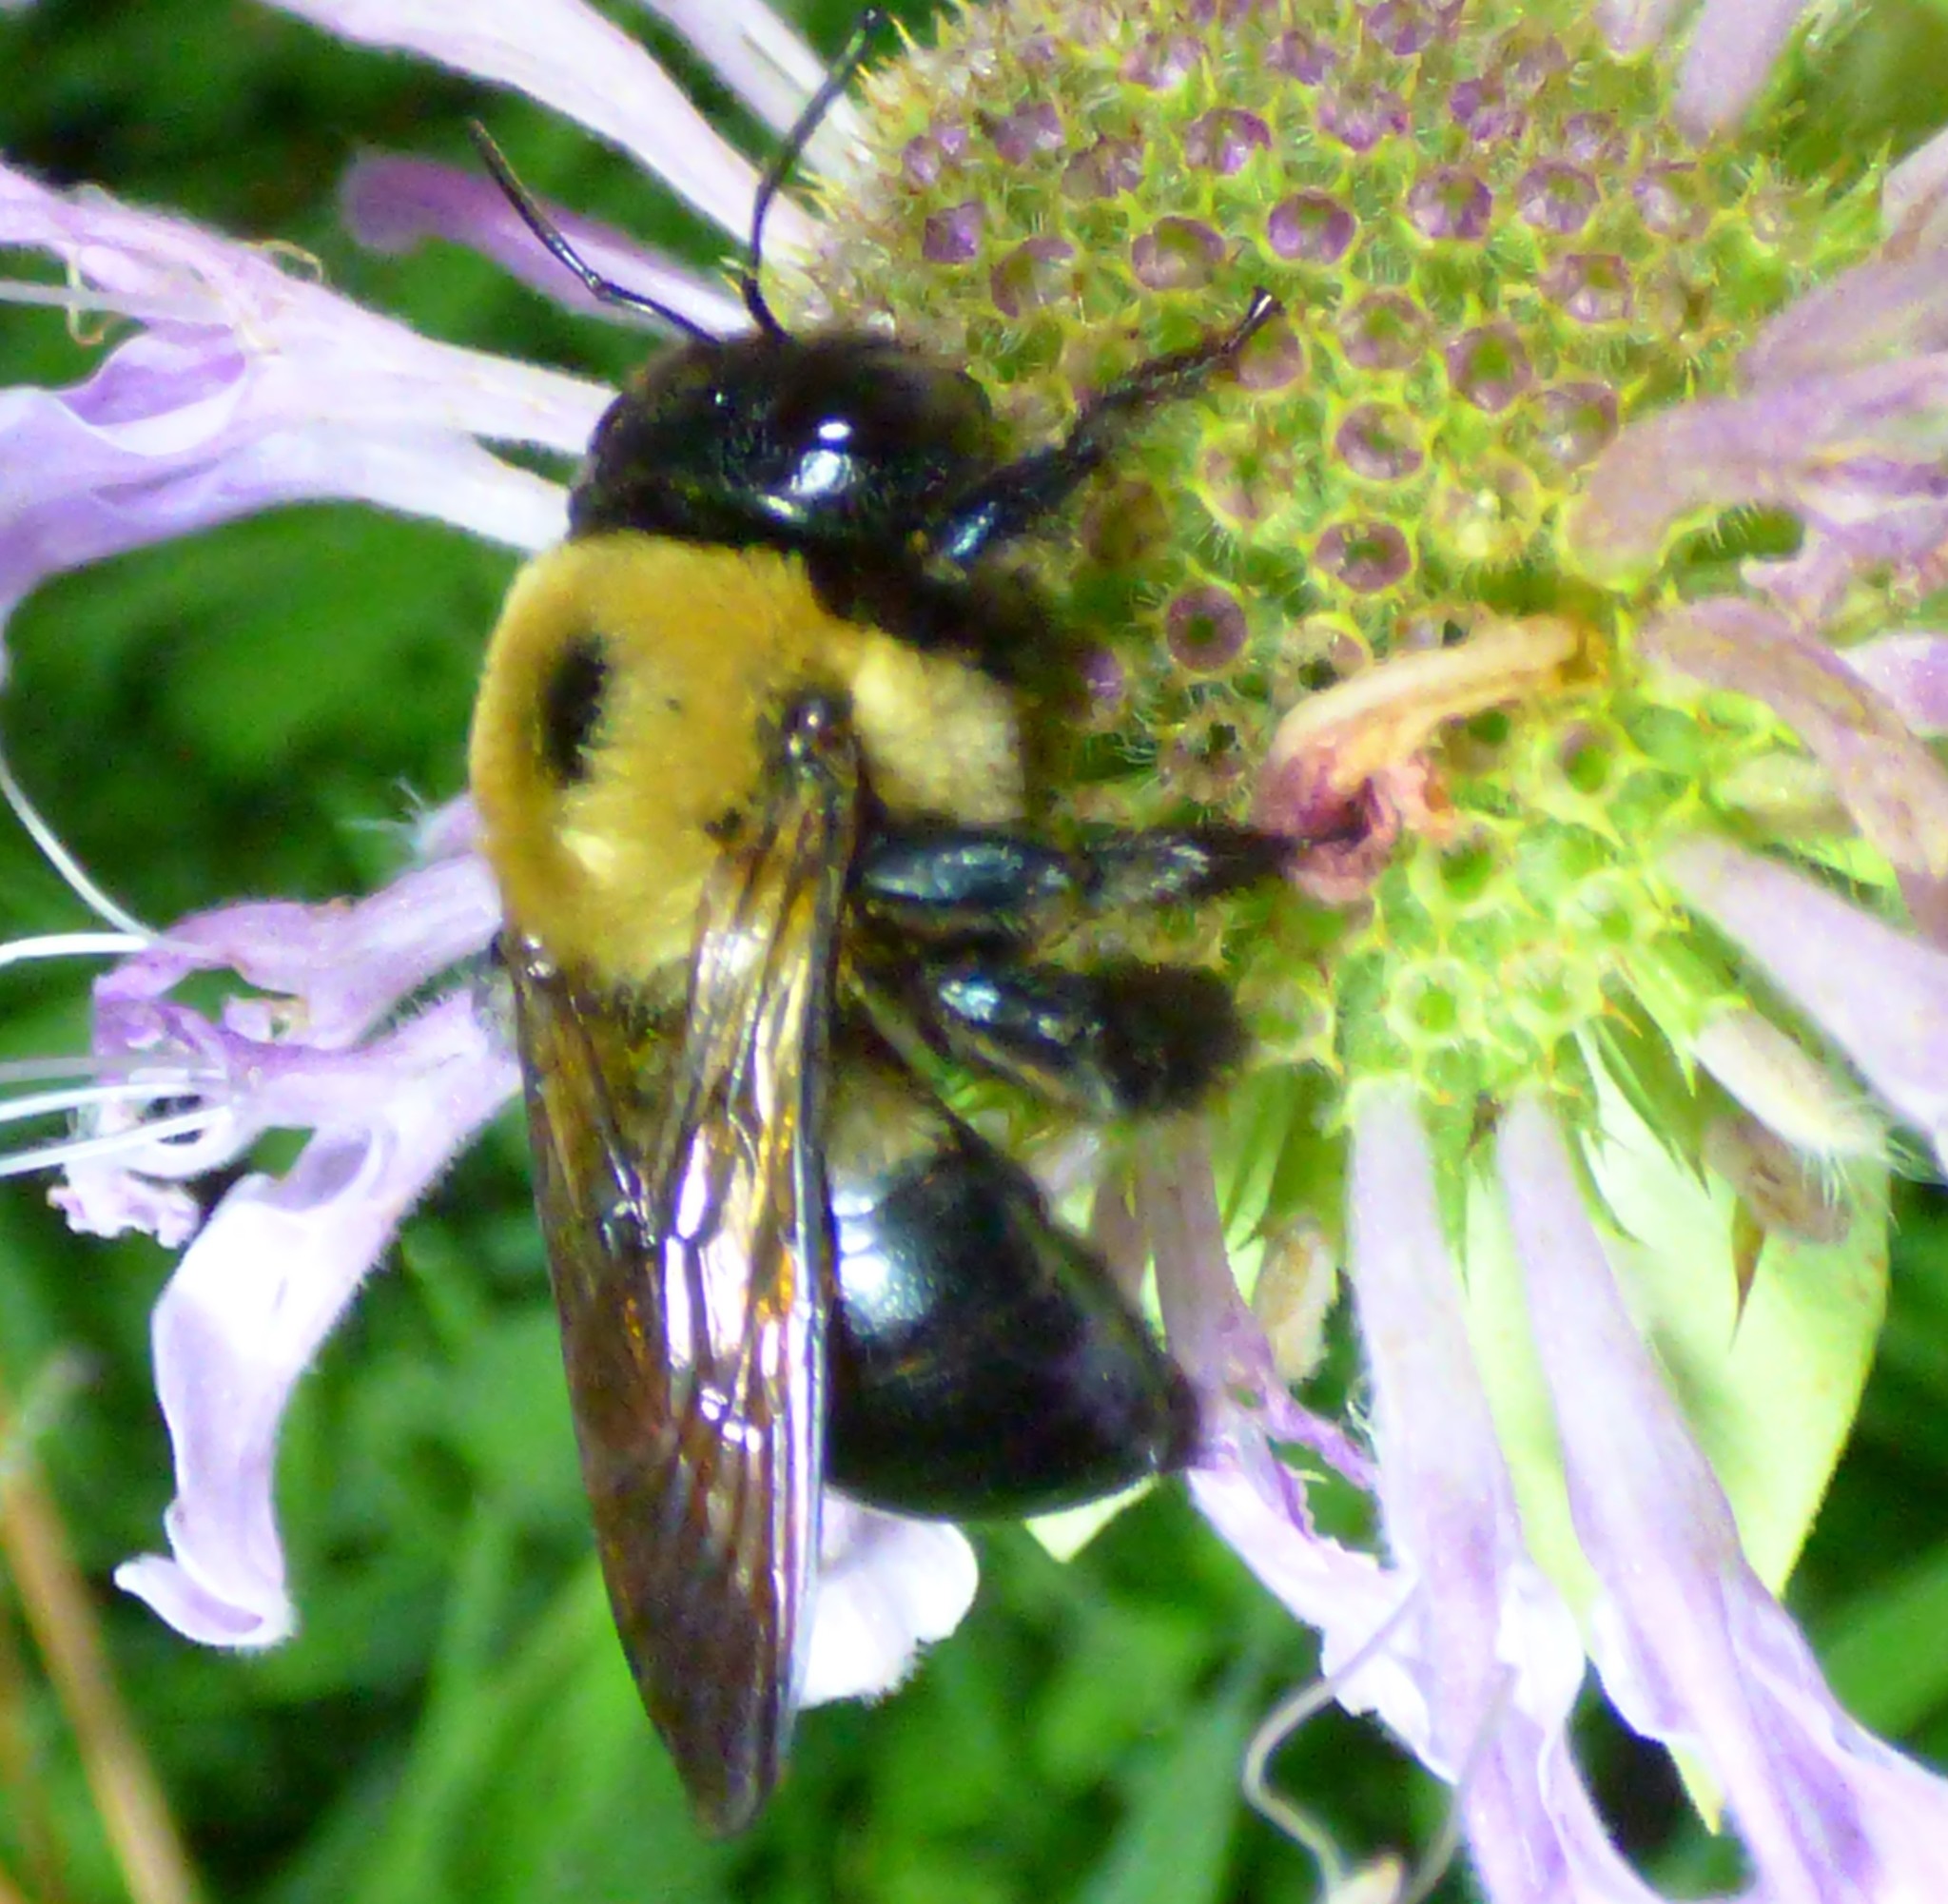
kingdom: Animalia
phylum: Arthropoda
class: Insecta
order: Hymenoptera
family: Apidae
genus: Xylocopa
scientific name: Xylocopa virginica
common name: Carpenter bee
